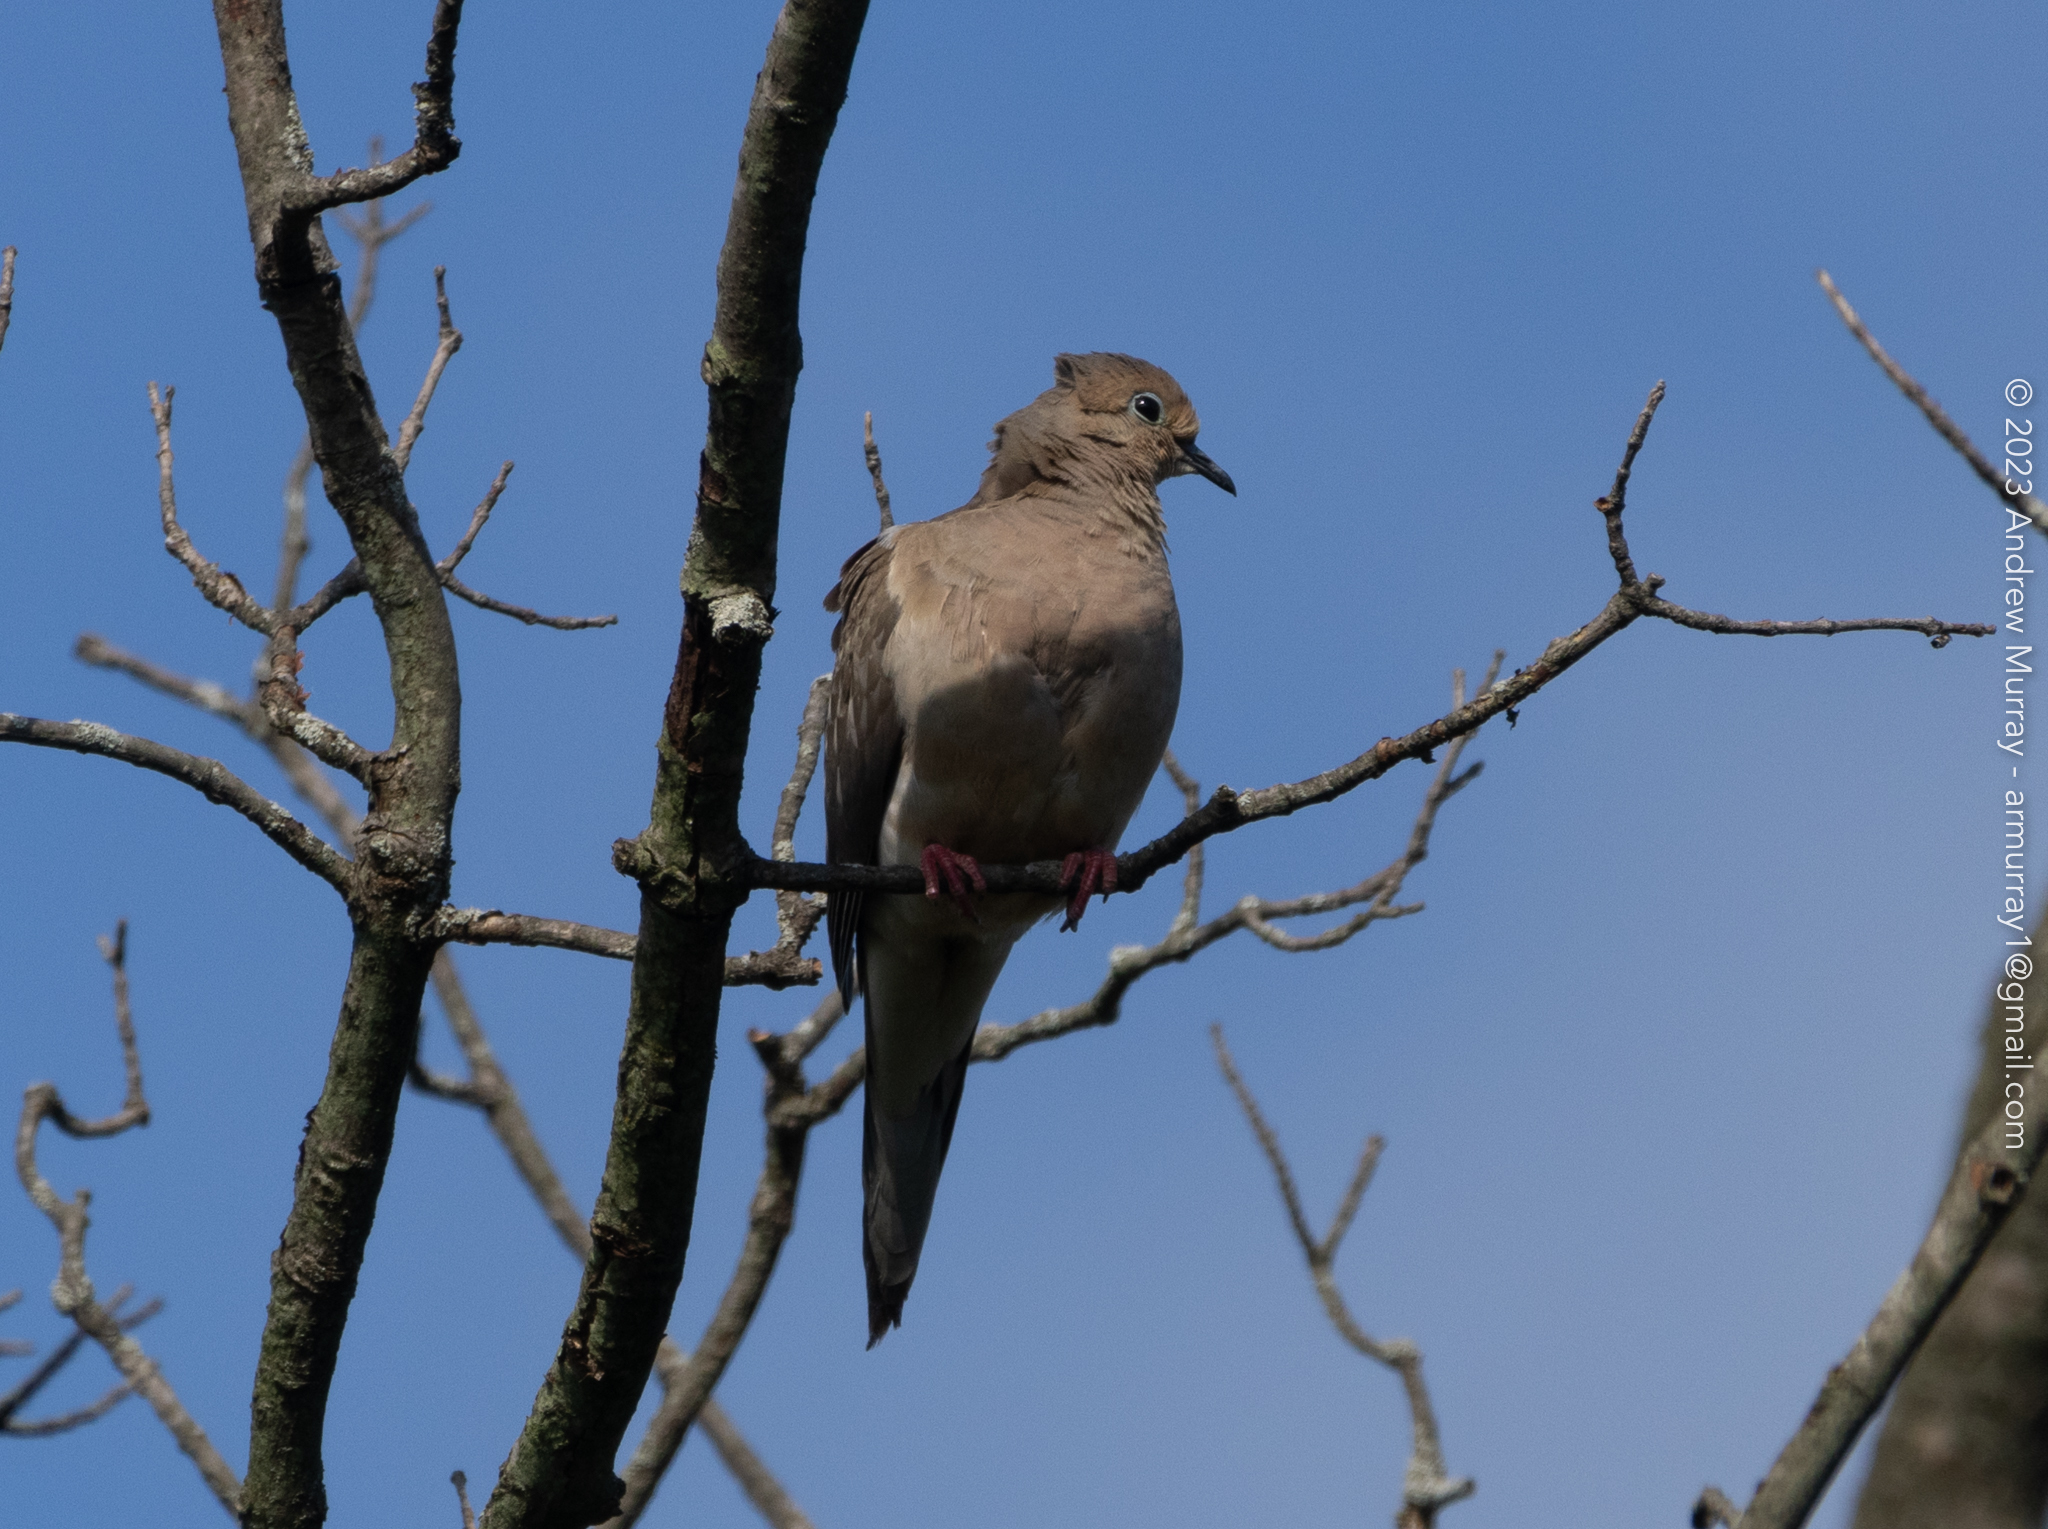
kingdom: Animalia
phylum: Chordata
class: Aves
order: Columbiformes
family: Columbidae
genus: Zenaida
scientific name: Zenaida macroura
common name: Mourning dove
